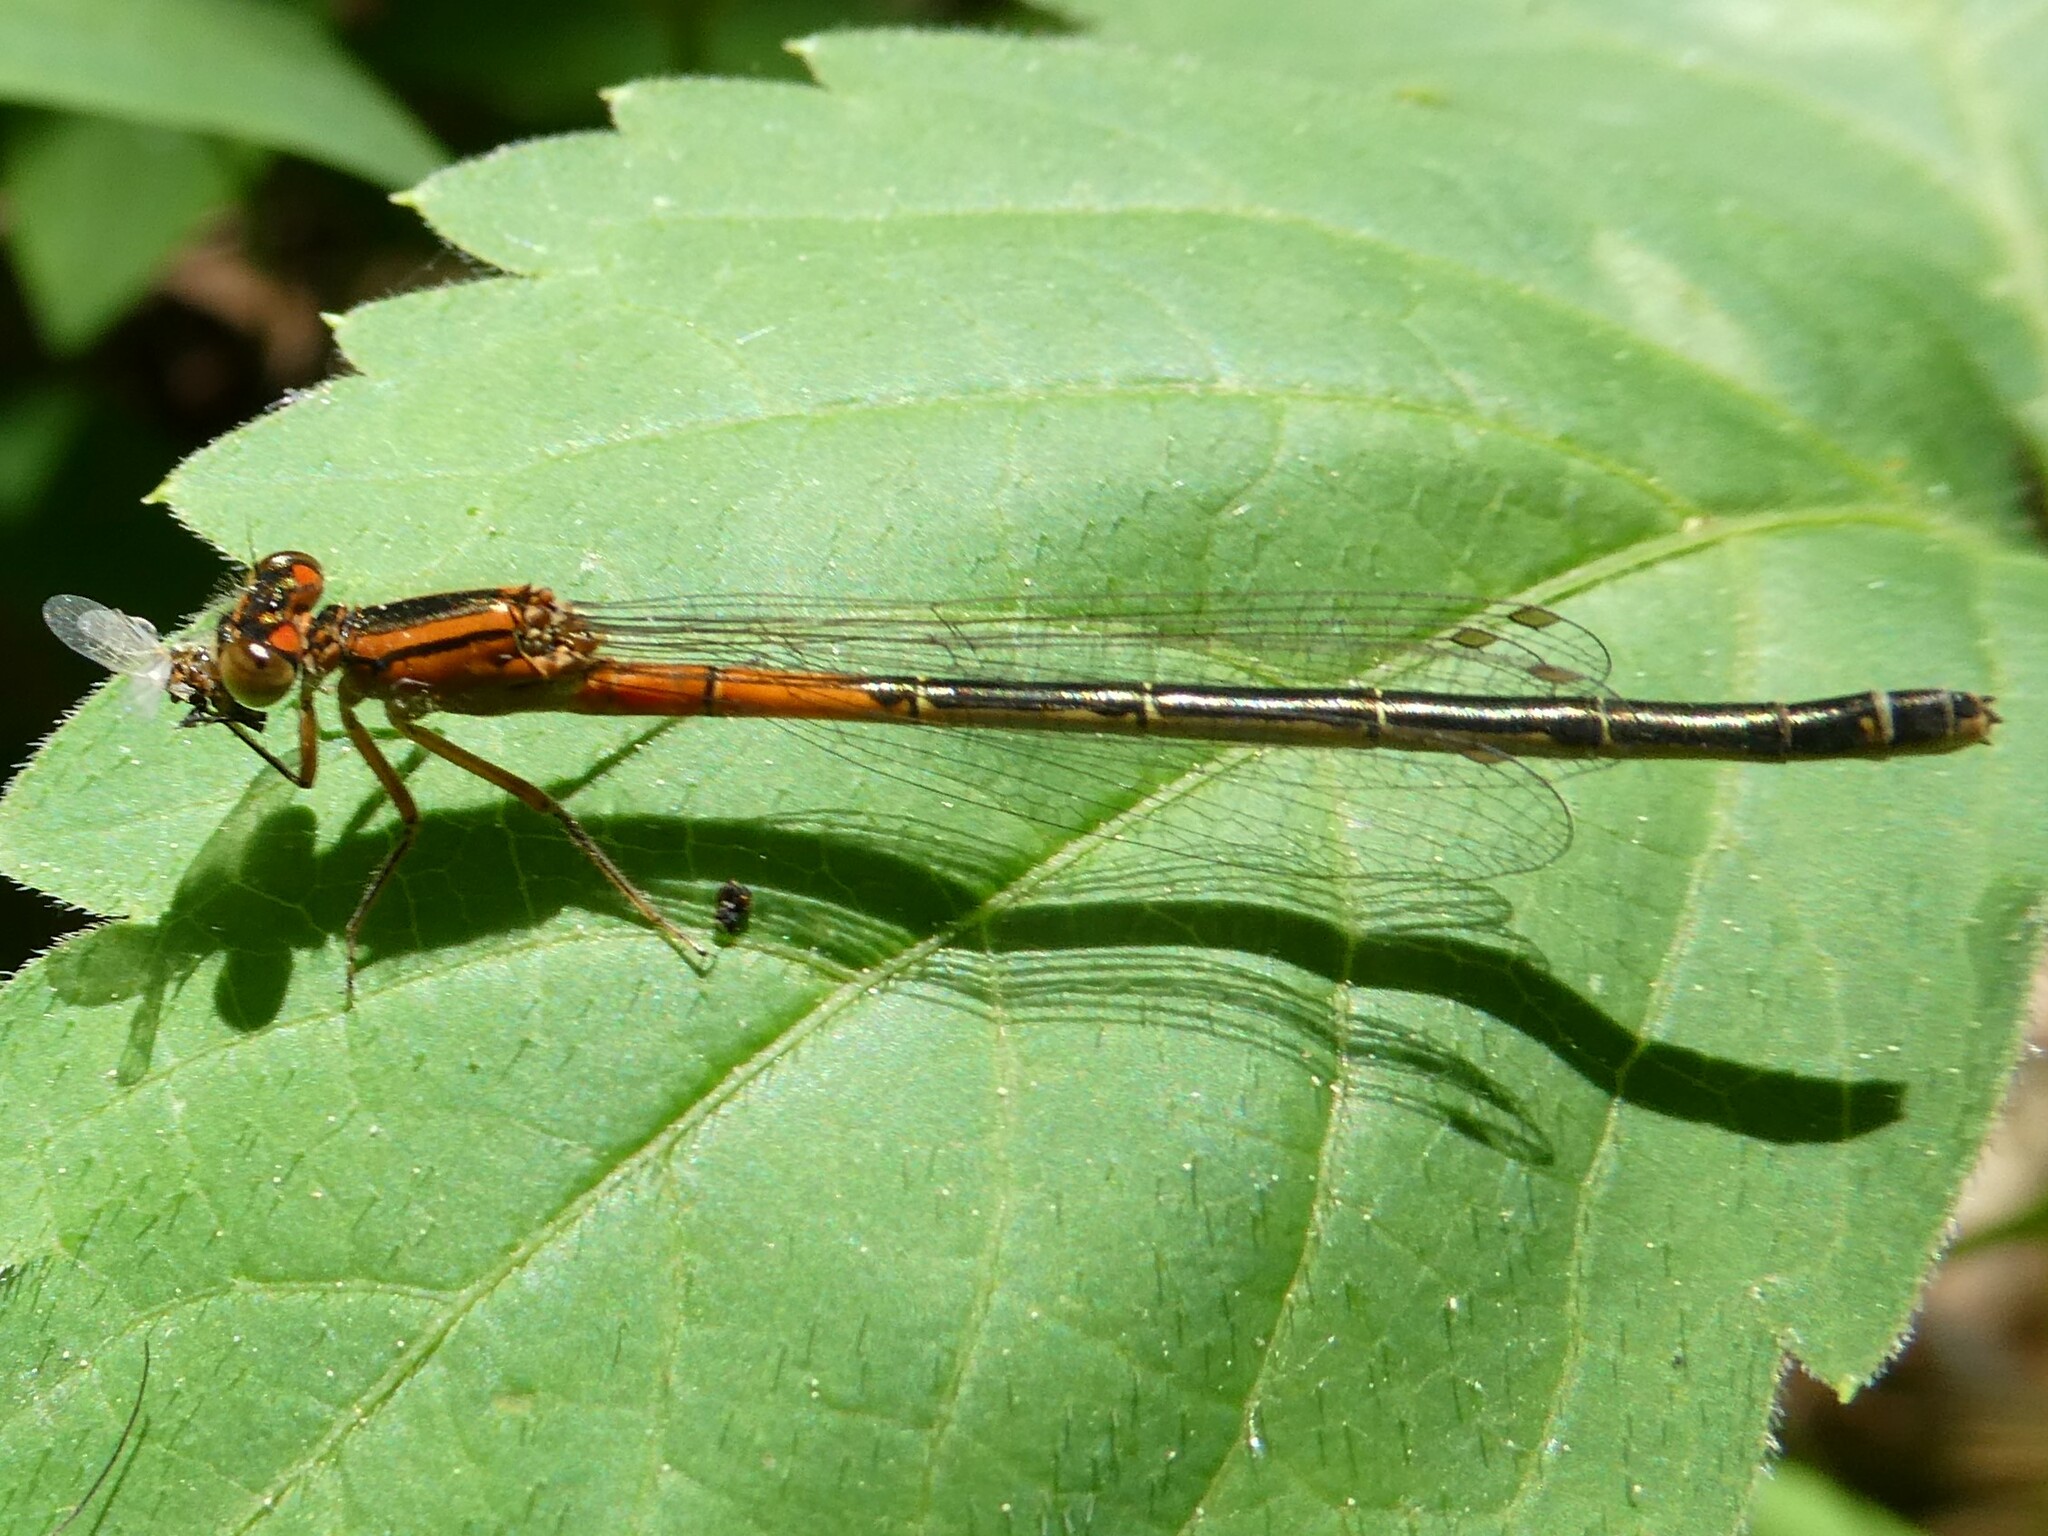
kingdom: Animalia
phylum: Arthropoda
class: Insecta
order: Odonata
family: Coenagrionidae
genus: Ischnura
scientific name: Ischnura verticalis
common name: Eastern forktail
